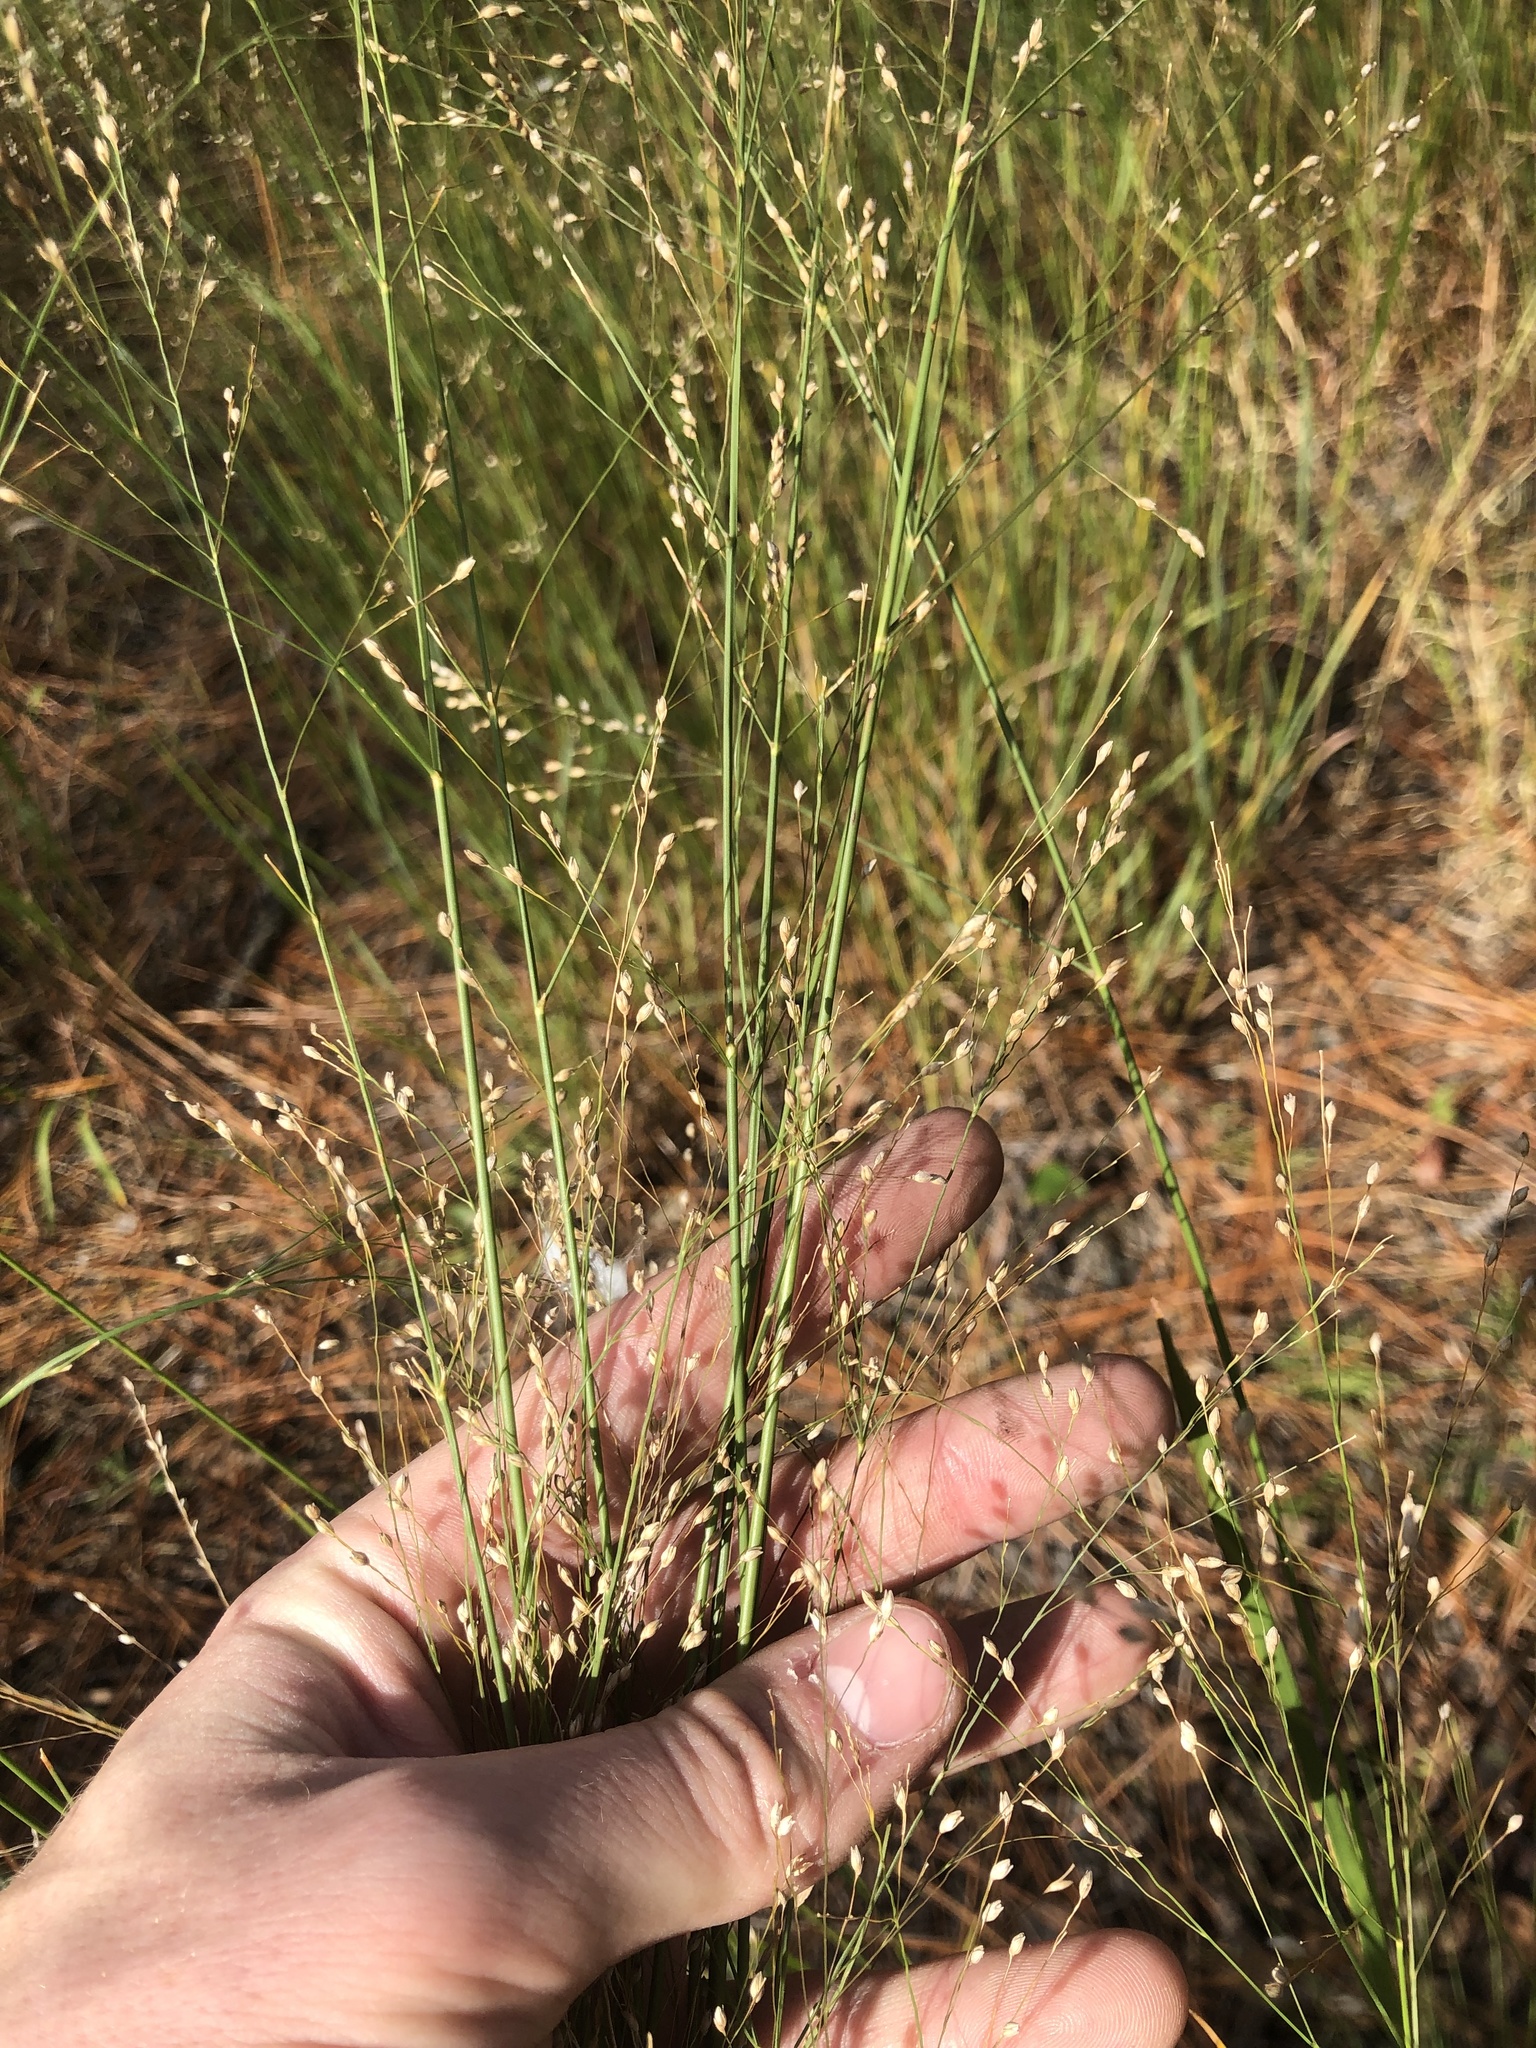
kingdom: Plantae
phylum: Tracheophyta
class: Liliopsida
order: Poales
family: Poaceae
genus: Panicum
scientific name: Panicum virgatum
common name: Switchgrass
